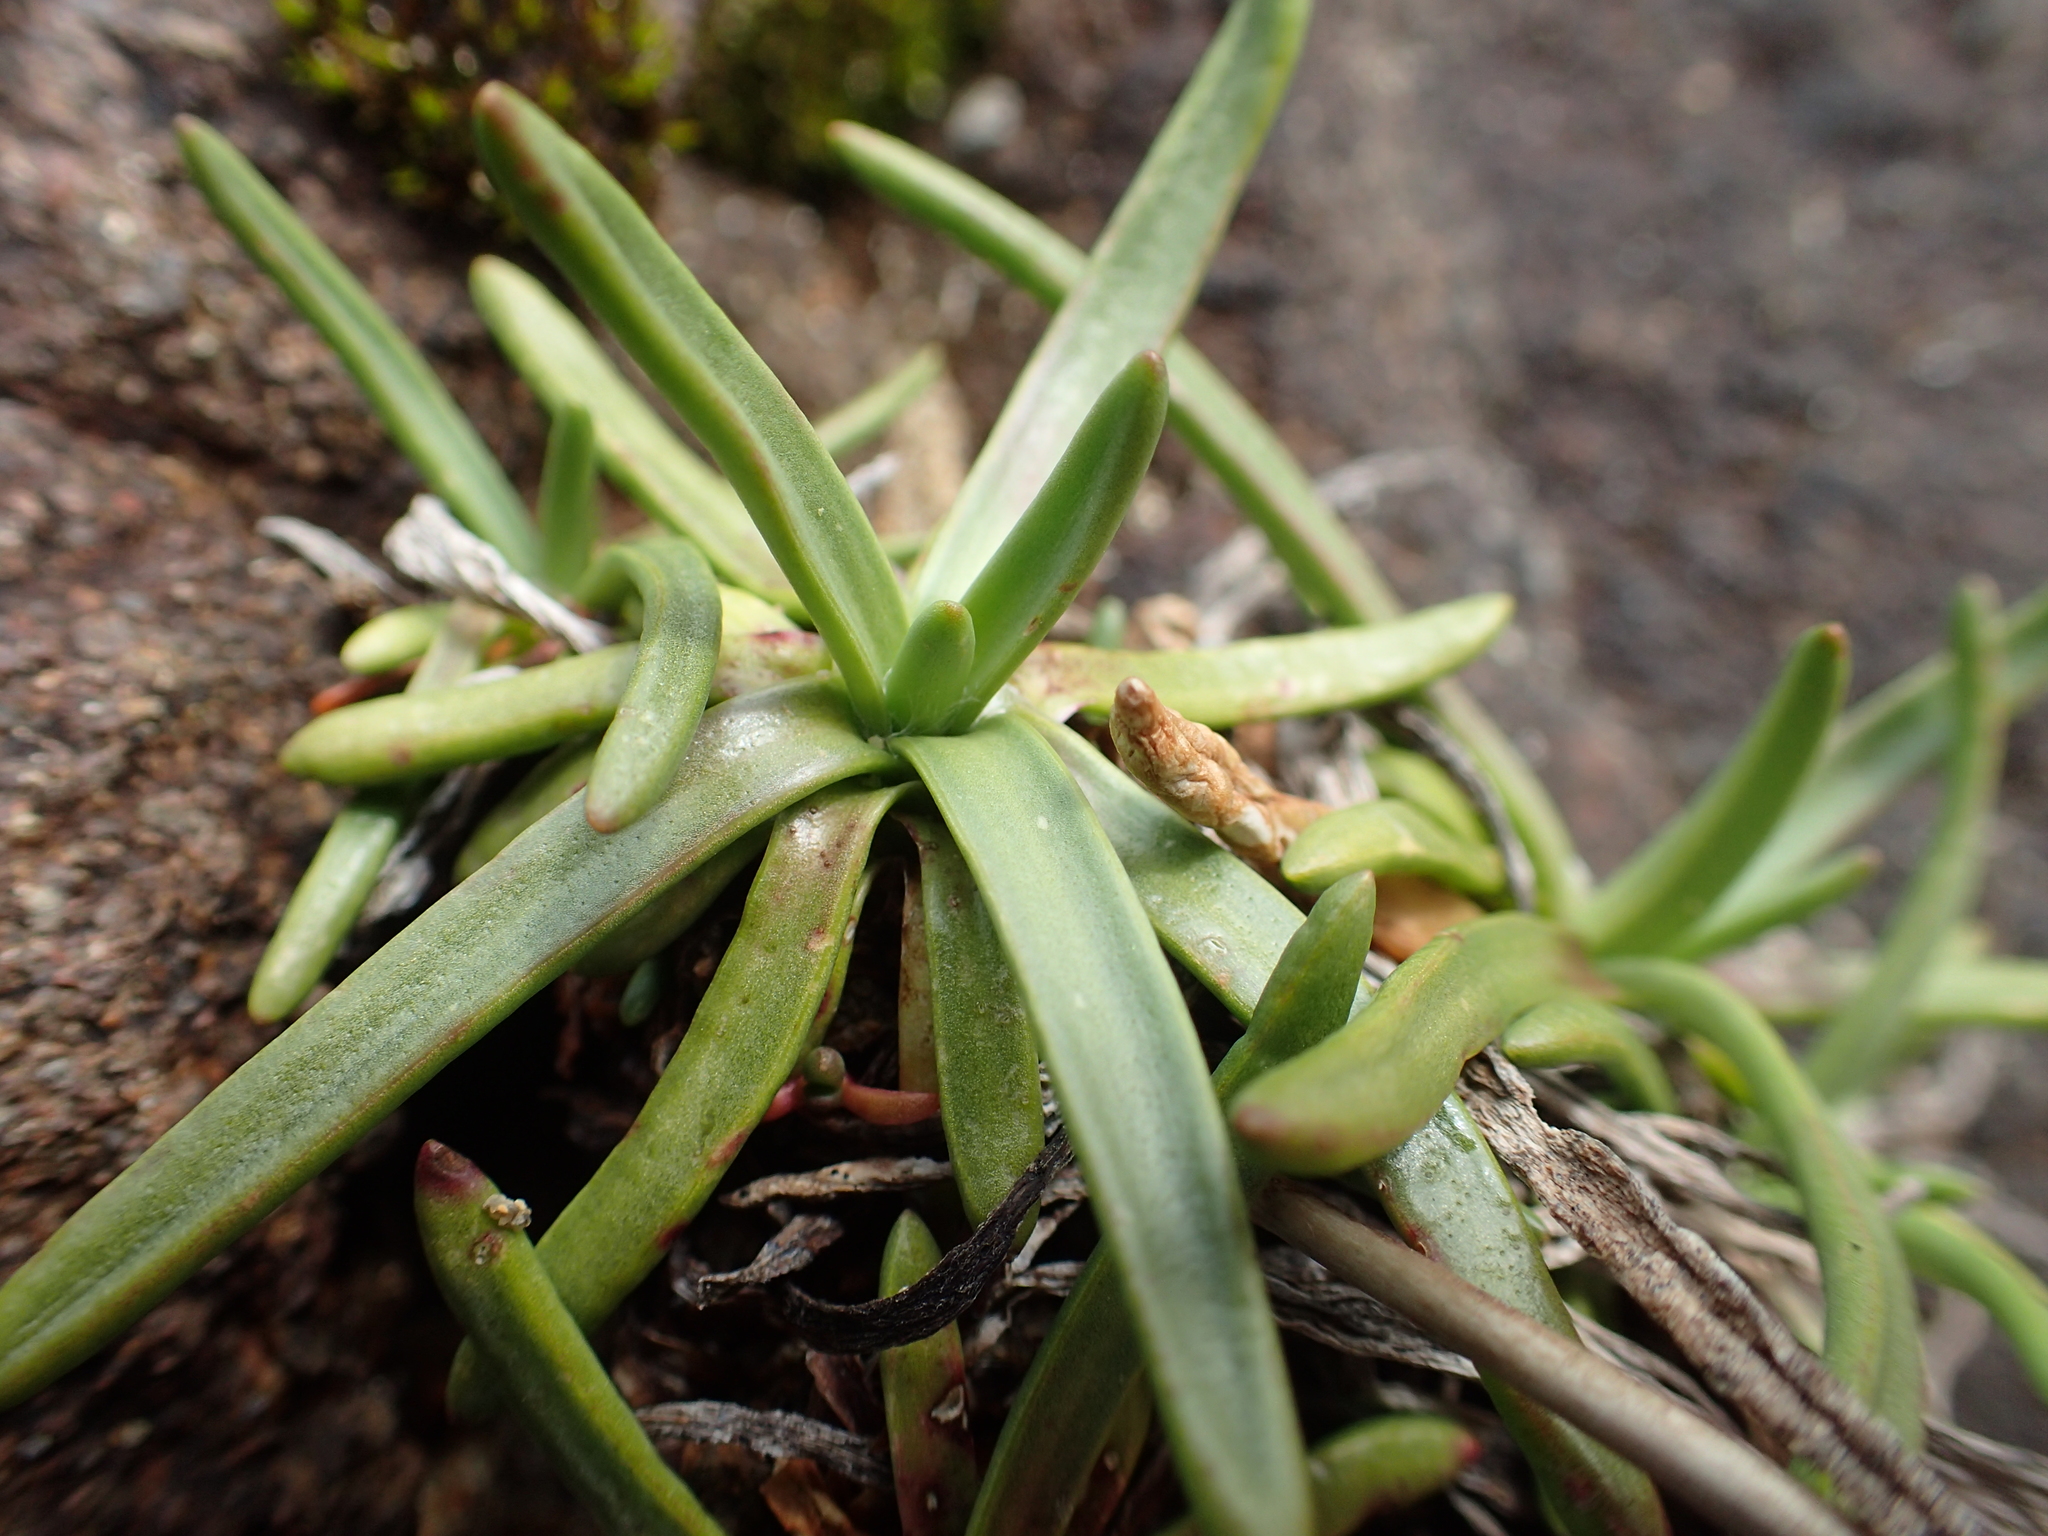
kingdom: Plantae
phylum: Tracheophyta
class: Magnoliopsida
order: Lamiales
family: Plantaginaceae
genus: Plantago
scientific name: Plantago maritima
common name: Sea plantain
